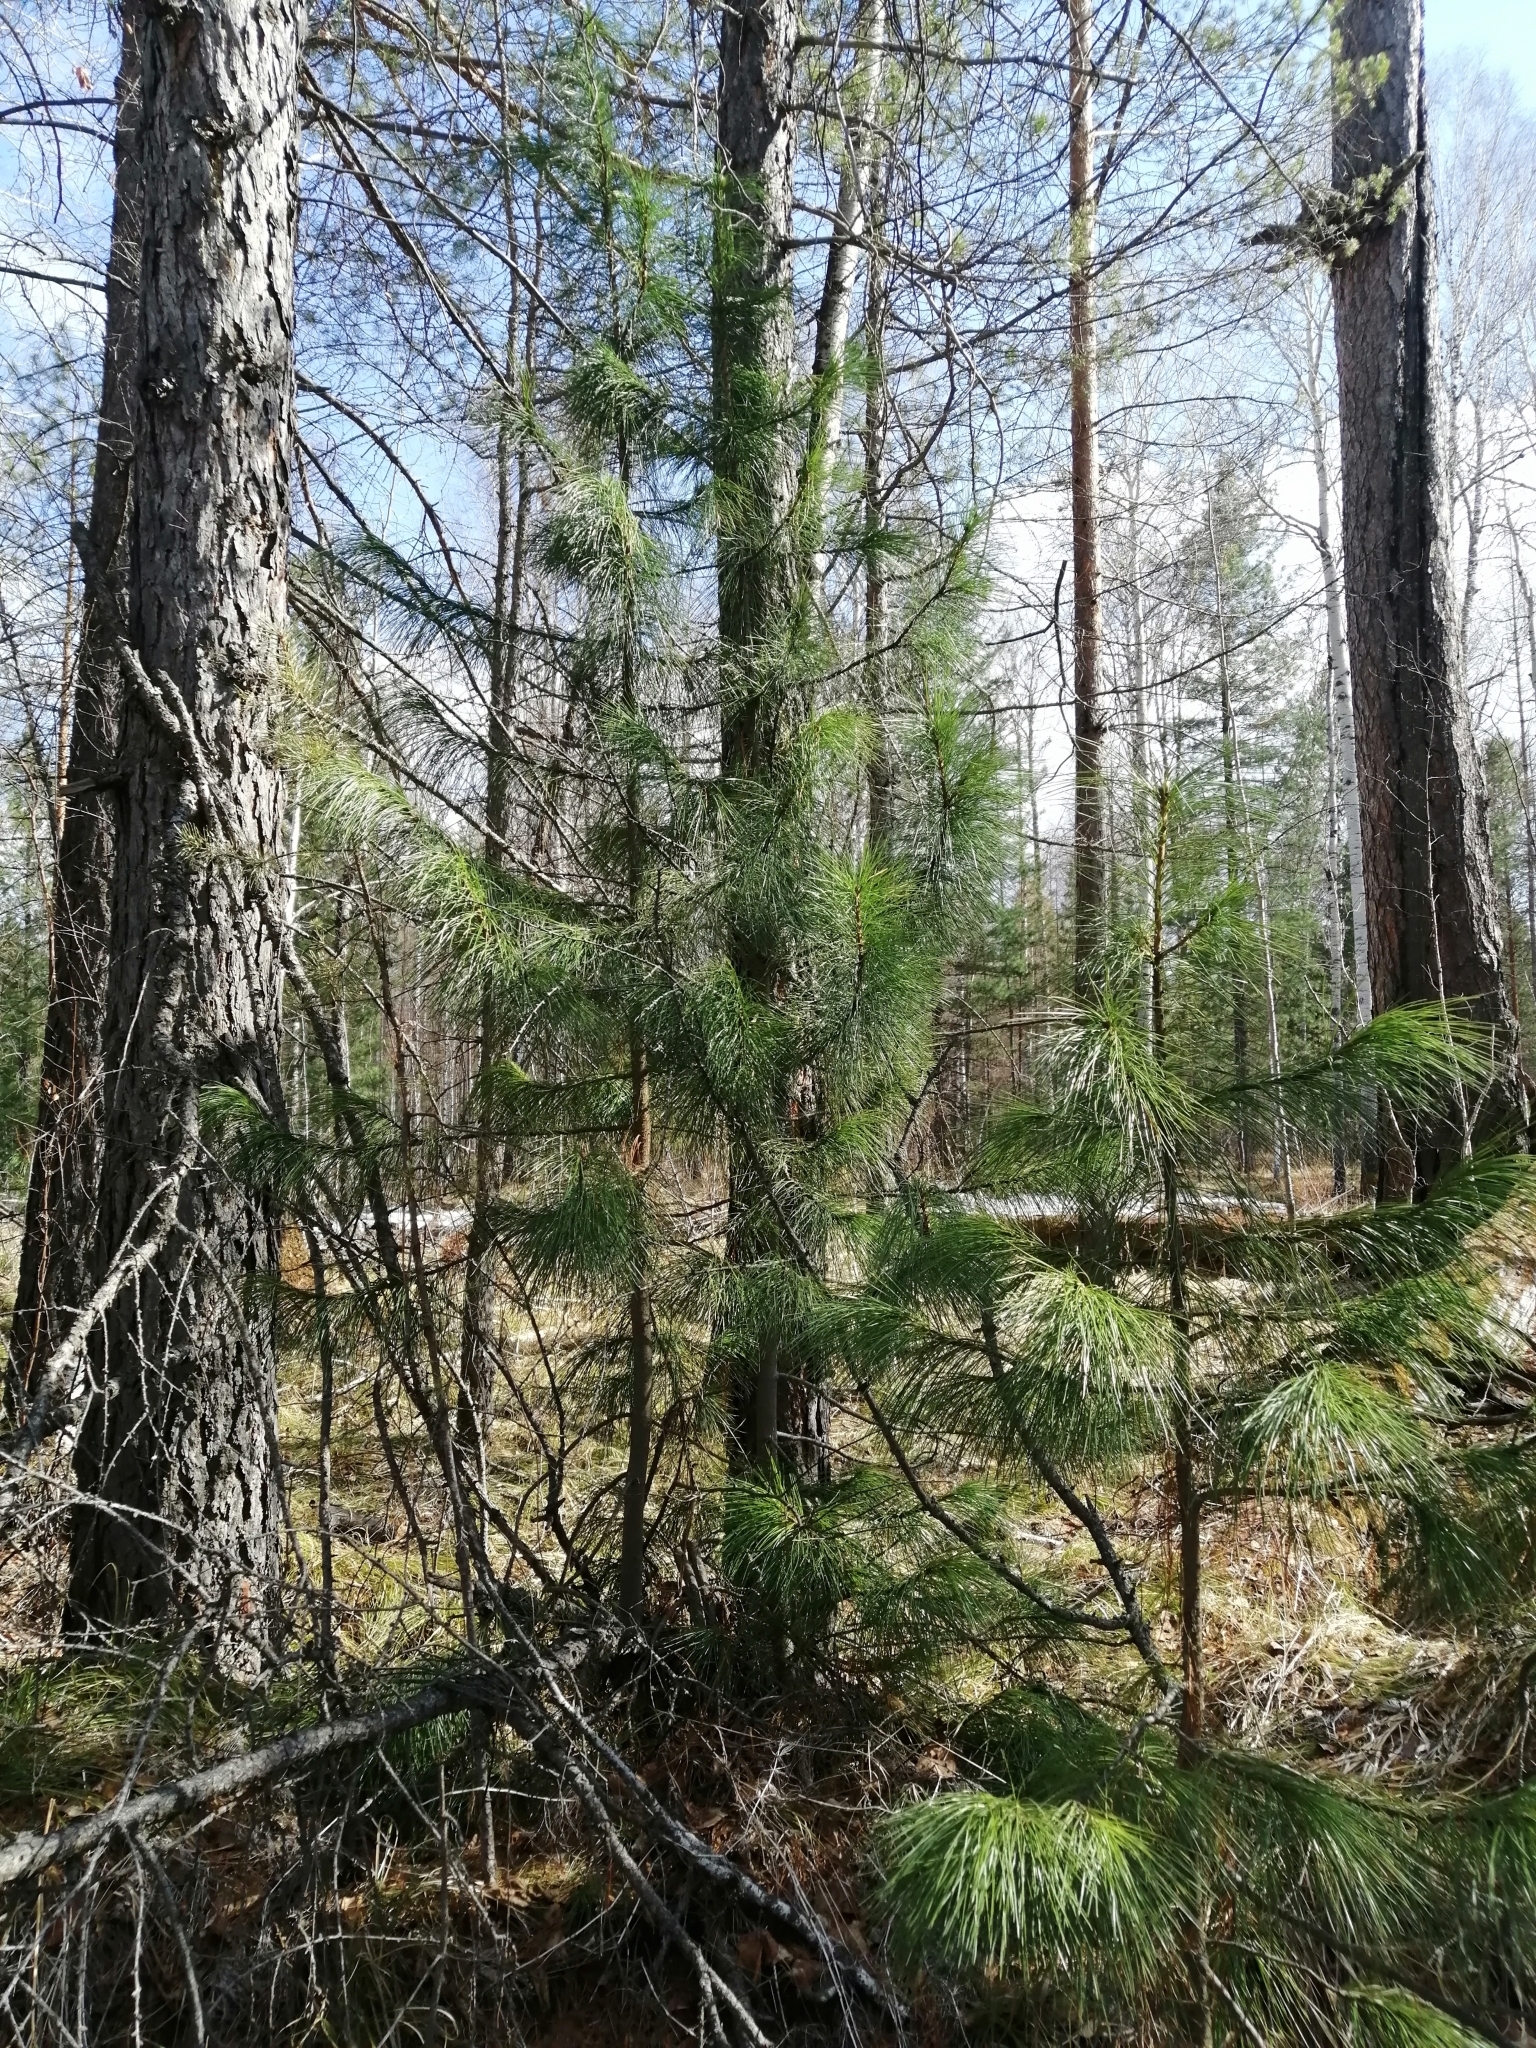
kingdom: Plantae
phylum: Tracheophyta
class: Pinopsida
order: Pinales
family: Pinaceae
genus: Pinus
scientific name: Pinus sibirica
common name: Siberian pine
